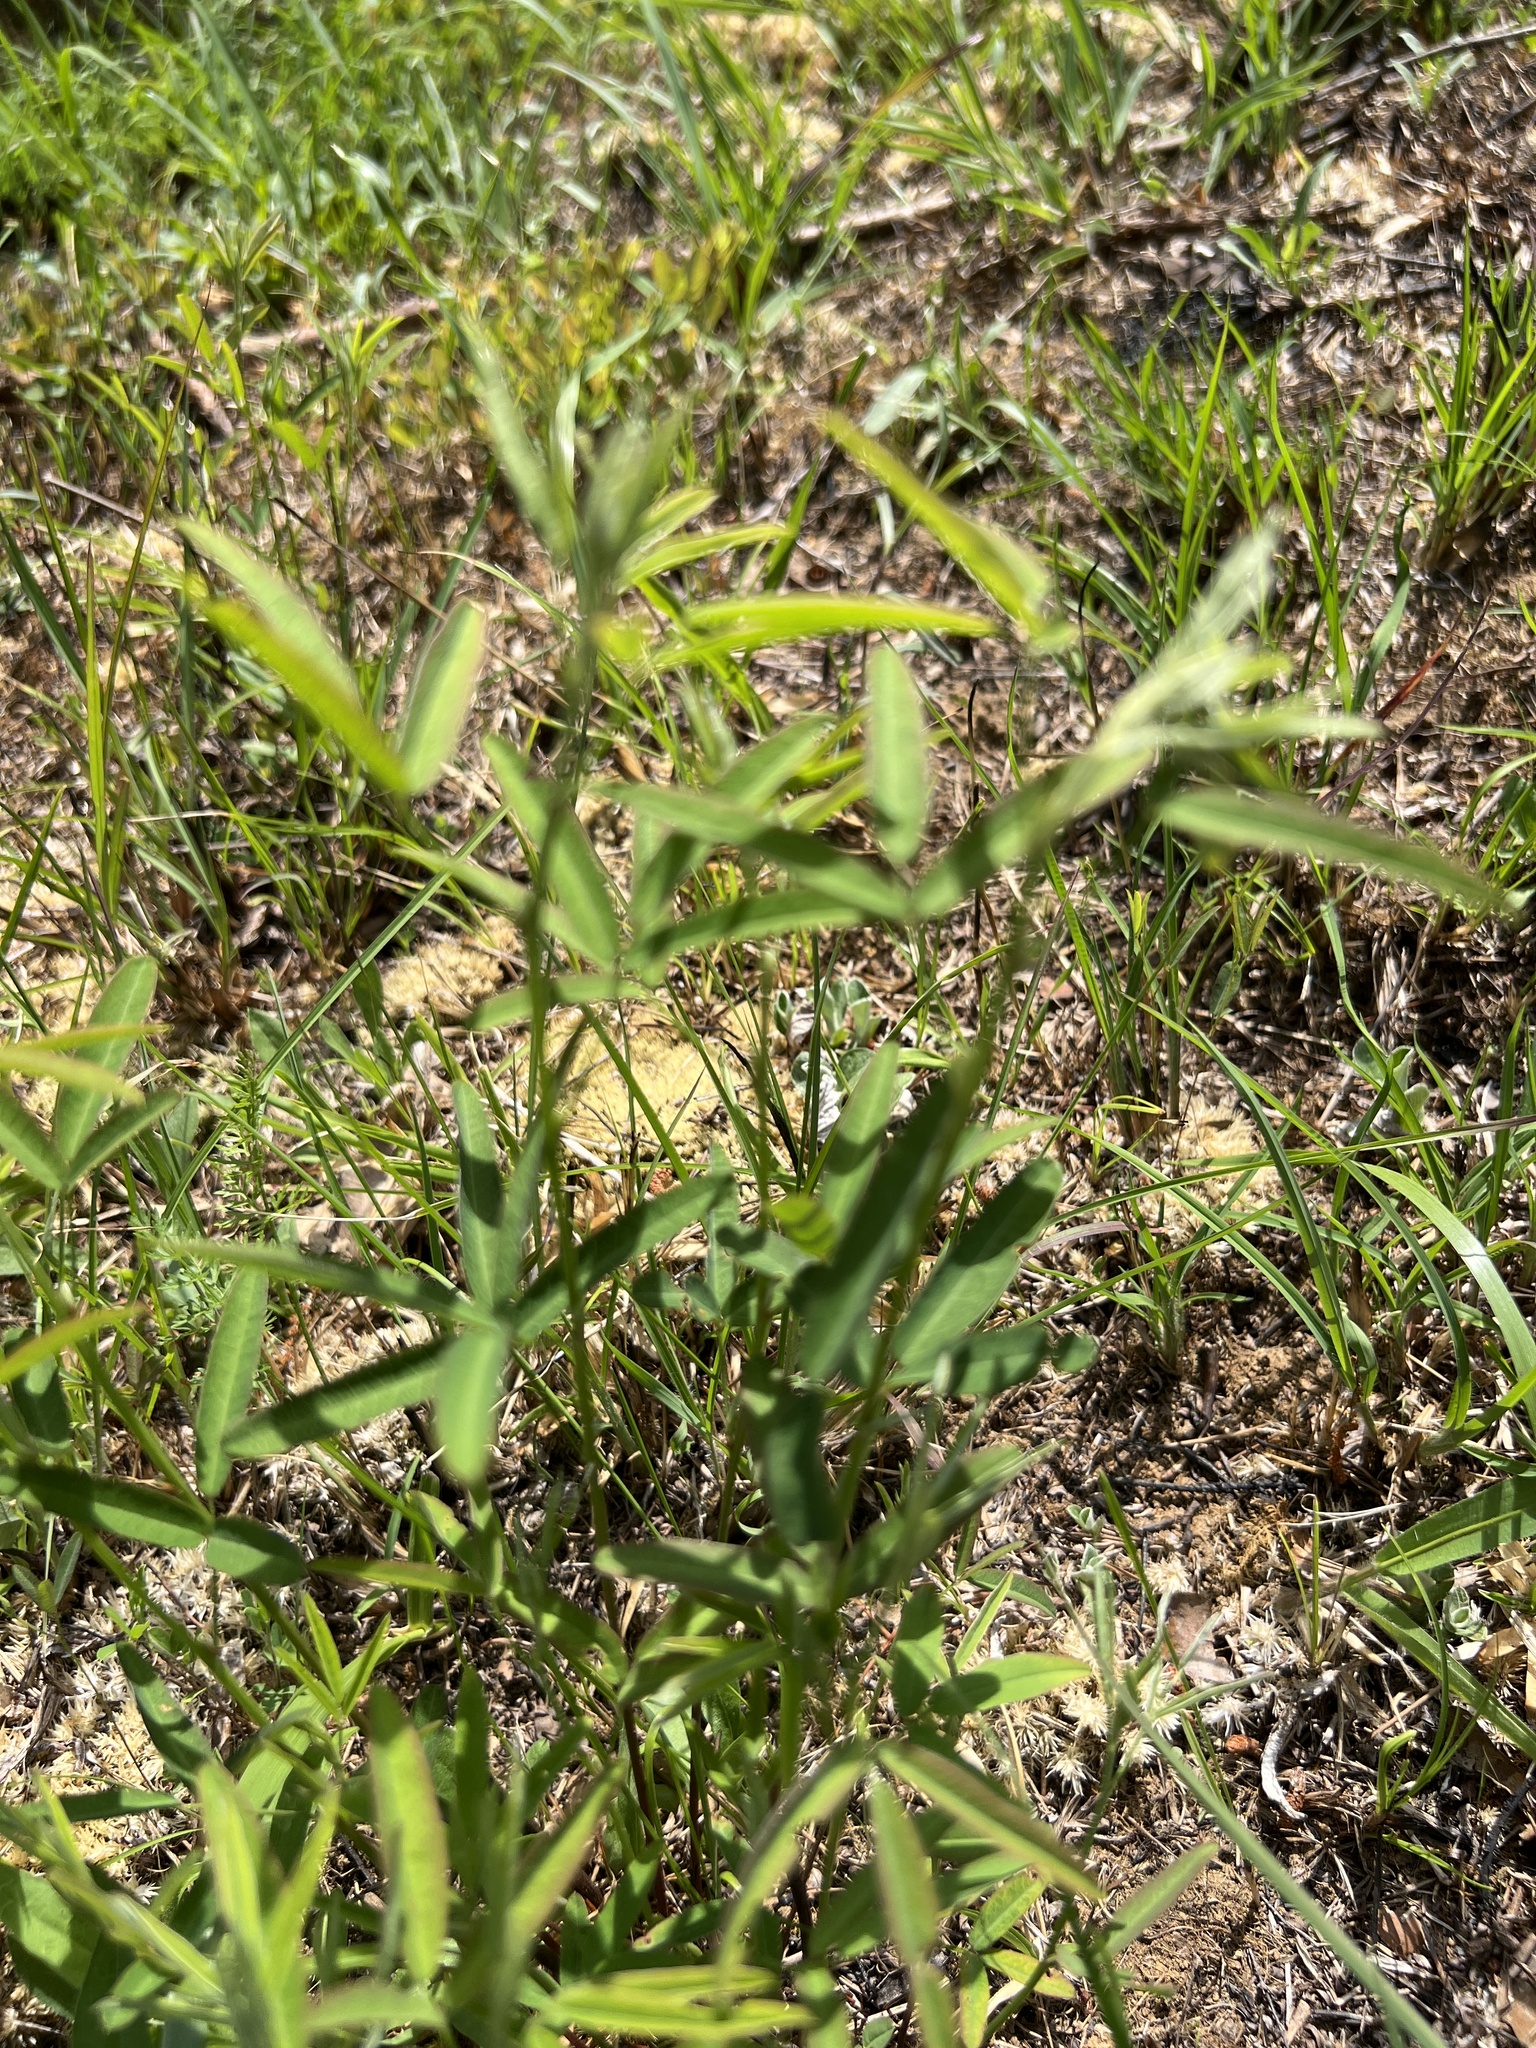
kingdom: Plantae
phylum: Tracheophyta
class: Magnoliopsida
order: Fabales
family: Fabaceae
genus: Lespedeza
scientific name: Lespedeza virginica
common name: Slender bush-clover
